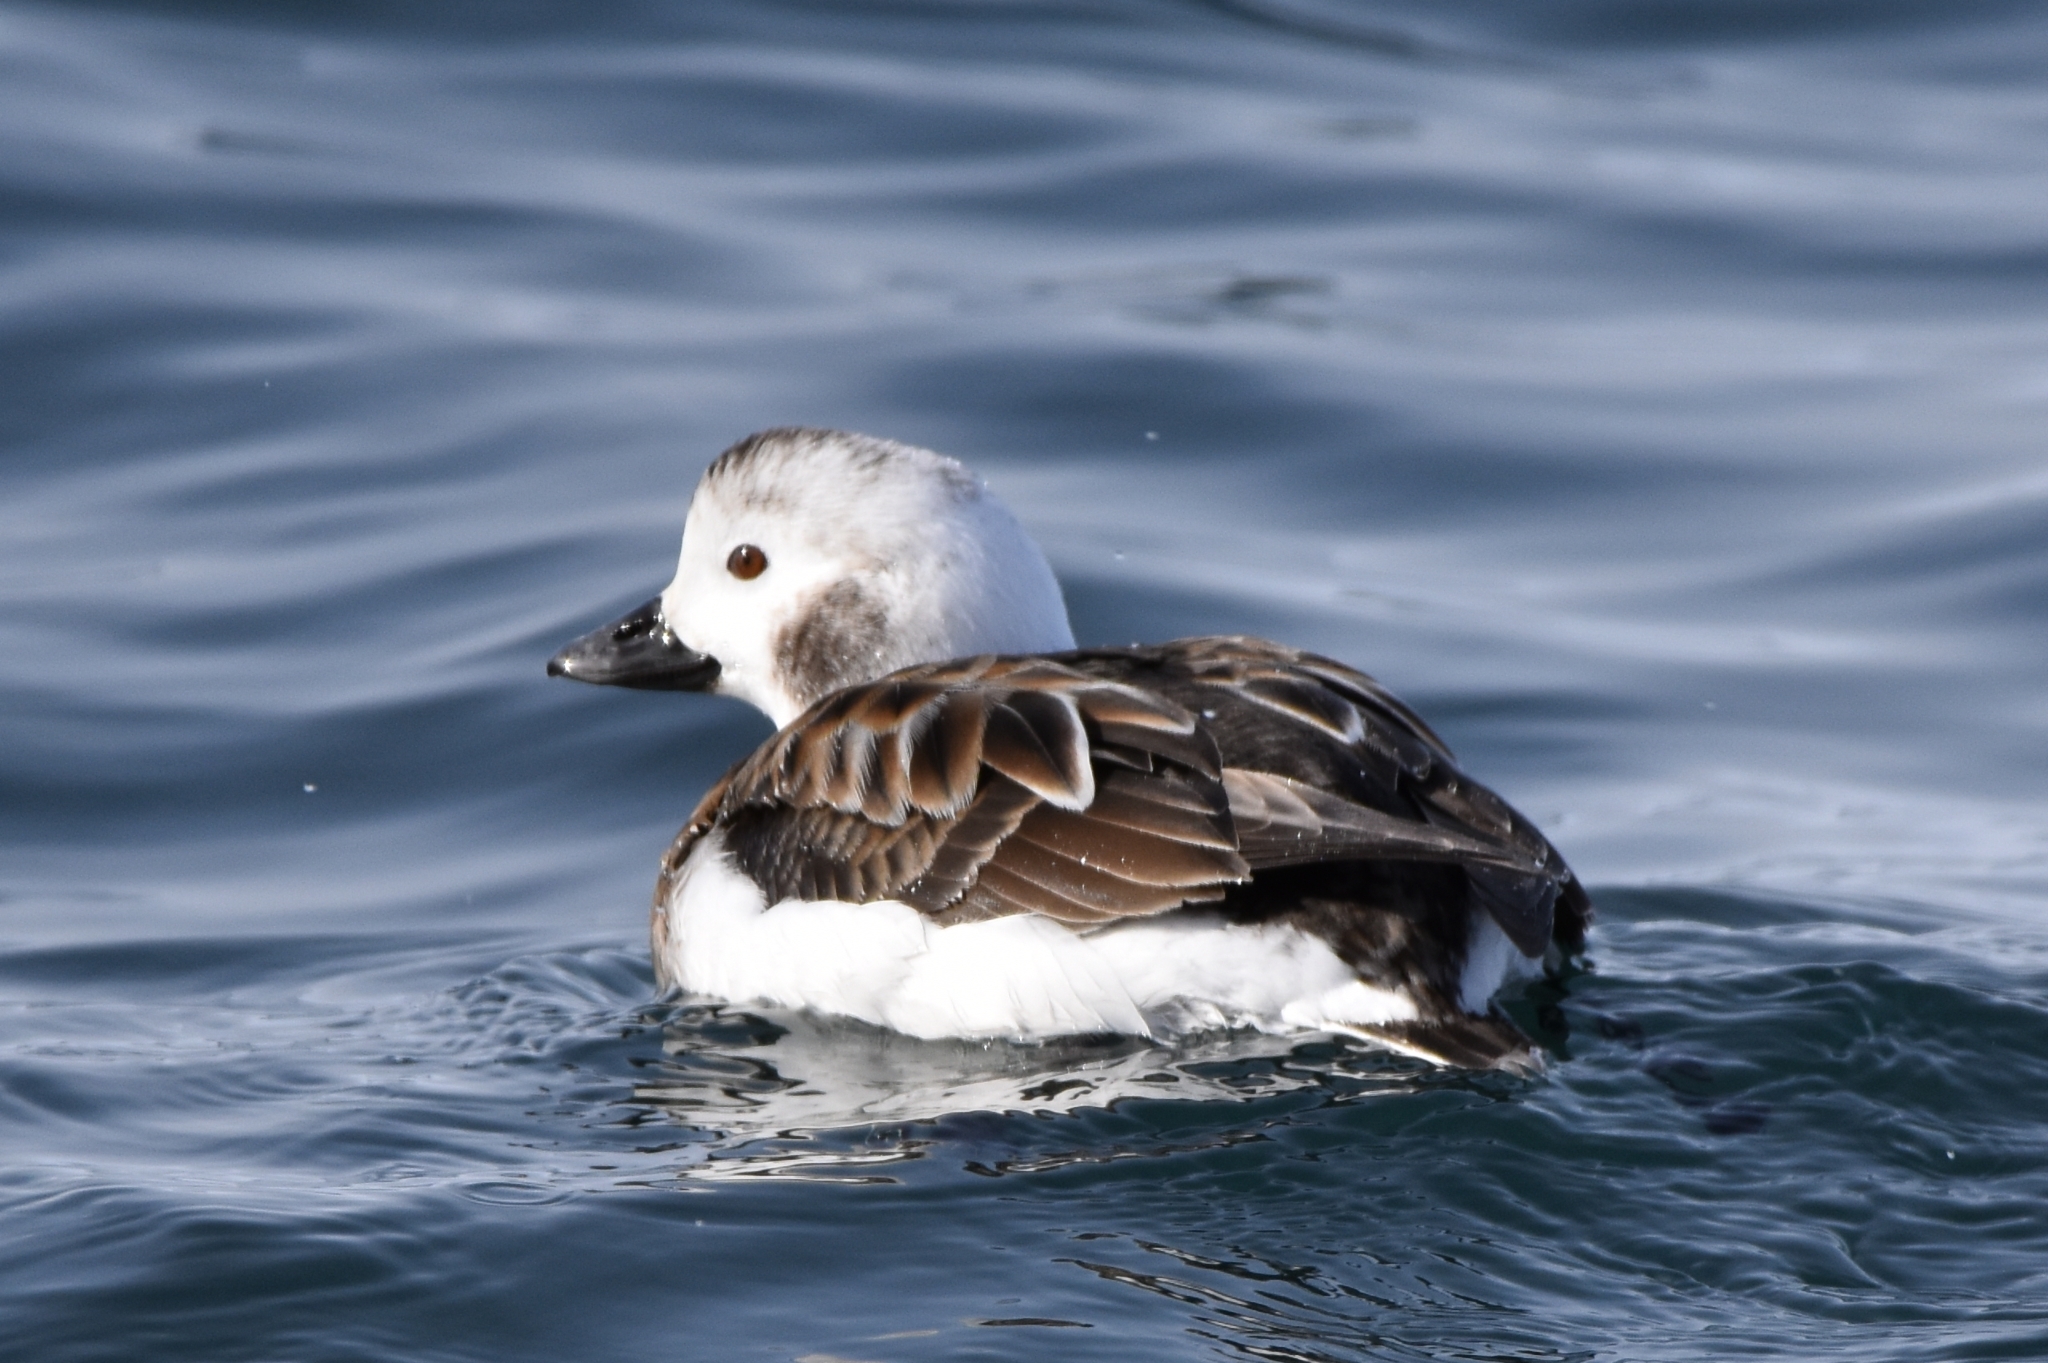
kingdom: Animalia
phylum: Chordata
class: Aves
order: Anseriformes
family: Anatidae
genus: Clangula
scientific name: Clangula hyemalis
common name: Long-tailed duck
